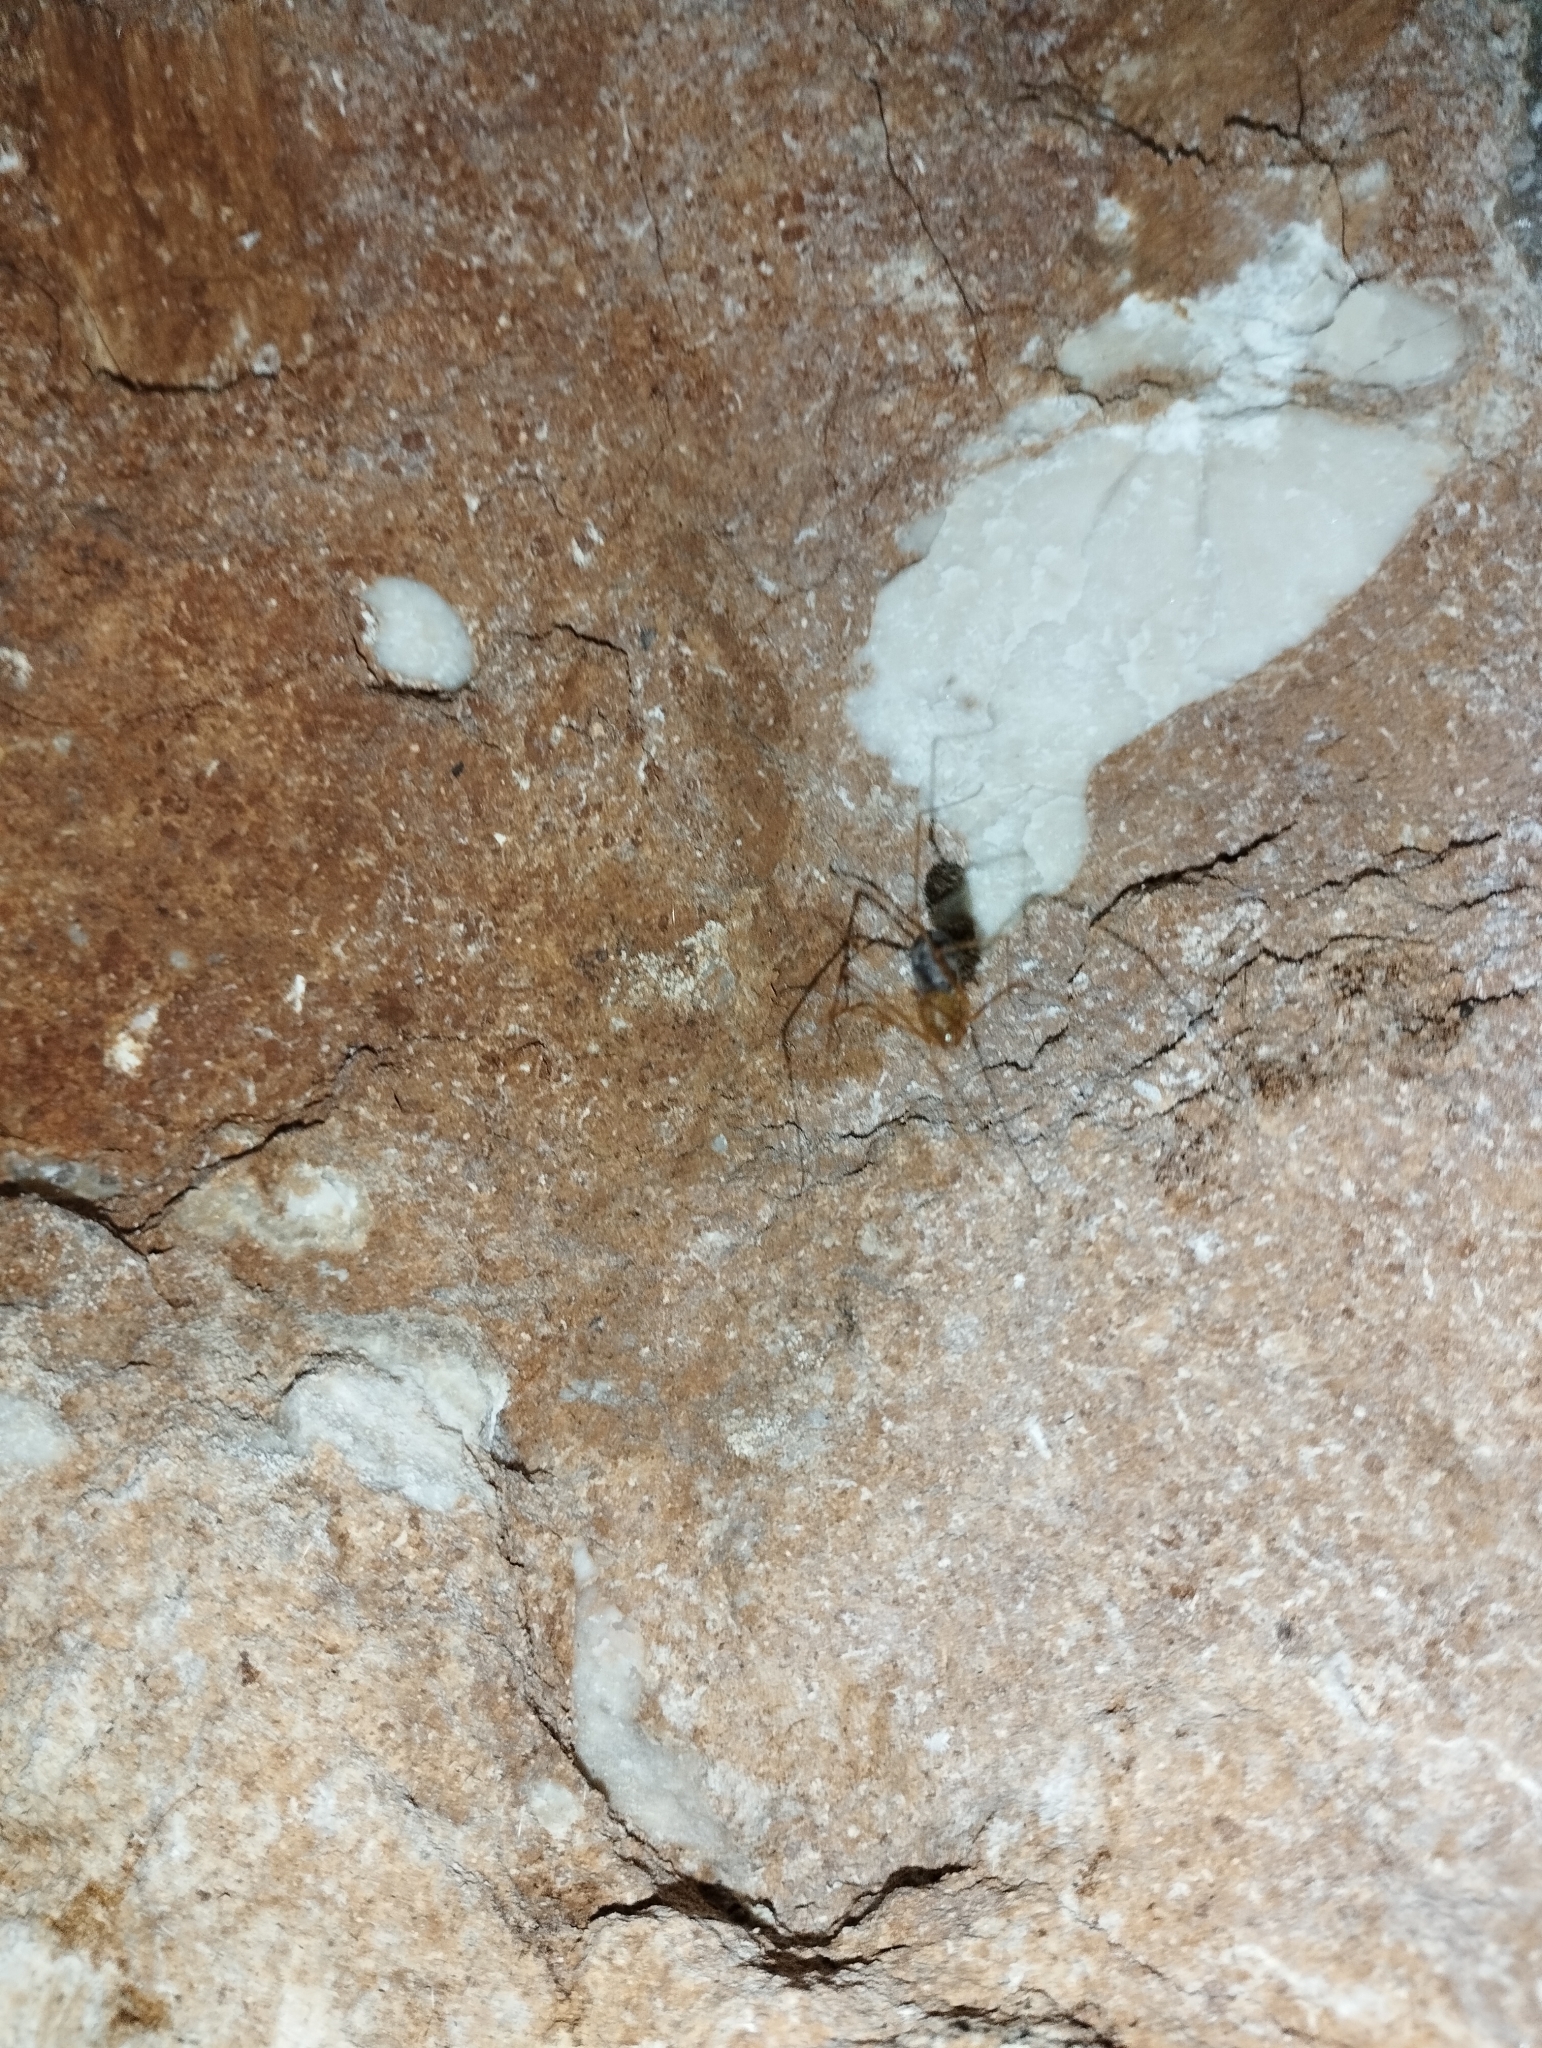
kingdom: Animalia
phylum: Arthropoda
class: Arachnida
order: Araneae
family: Pholcidae
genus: Physocyclus
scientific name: Physocyclus globosus
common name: Cellar spiders
